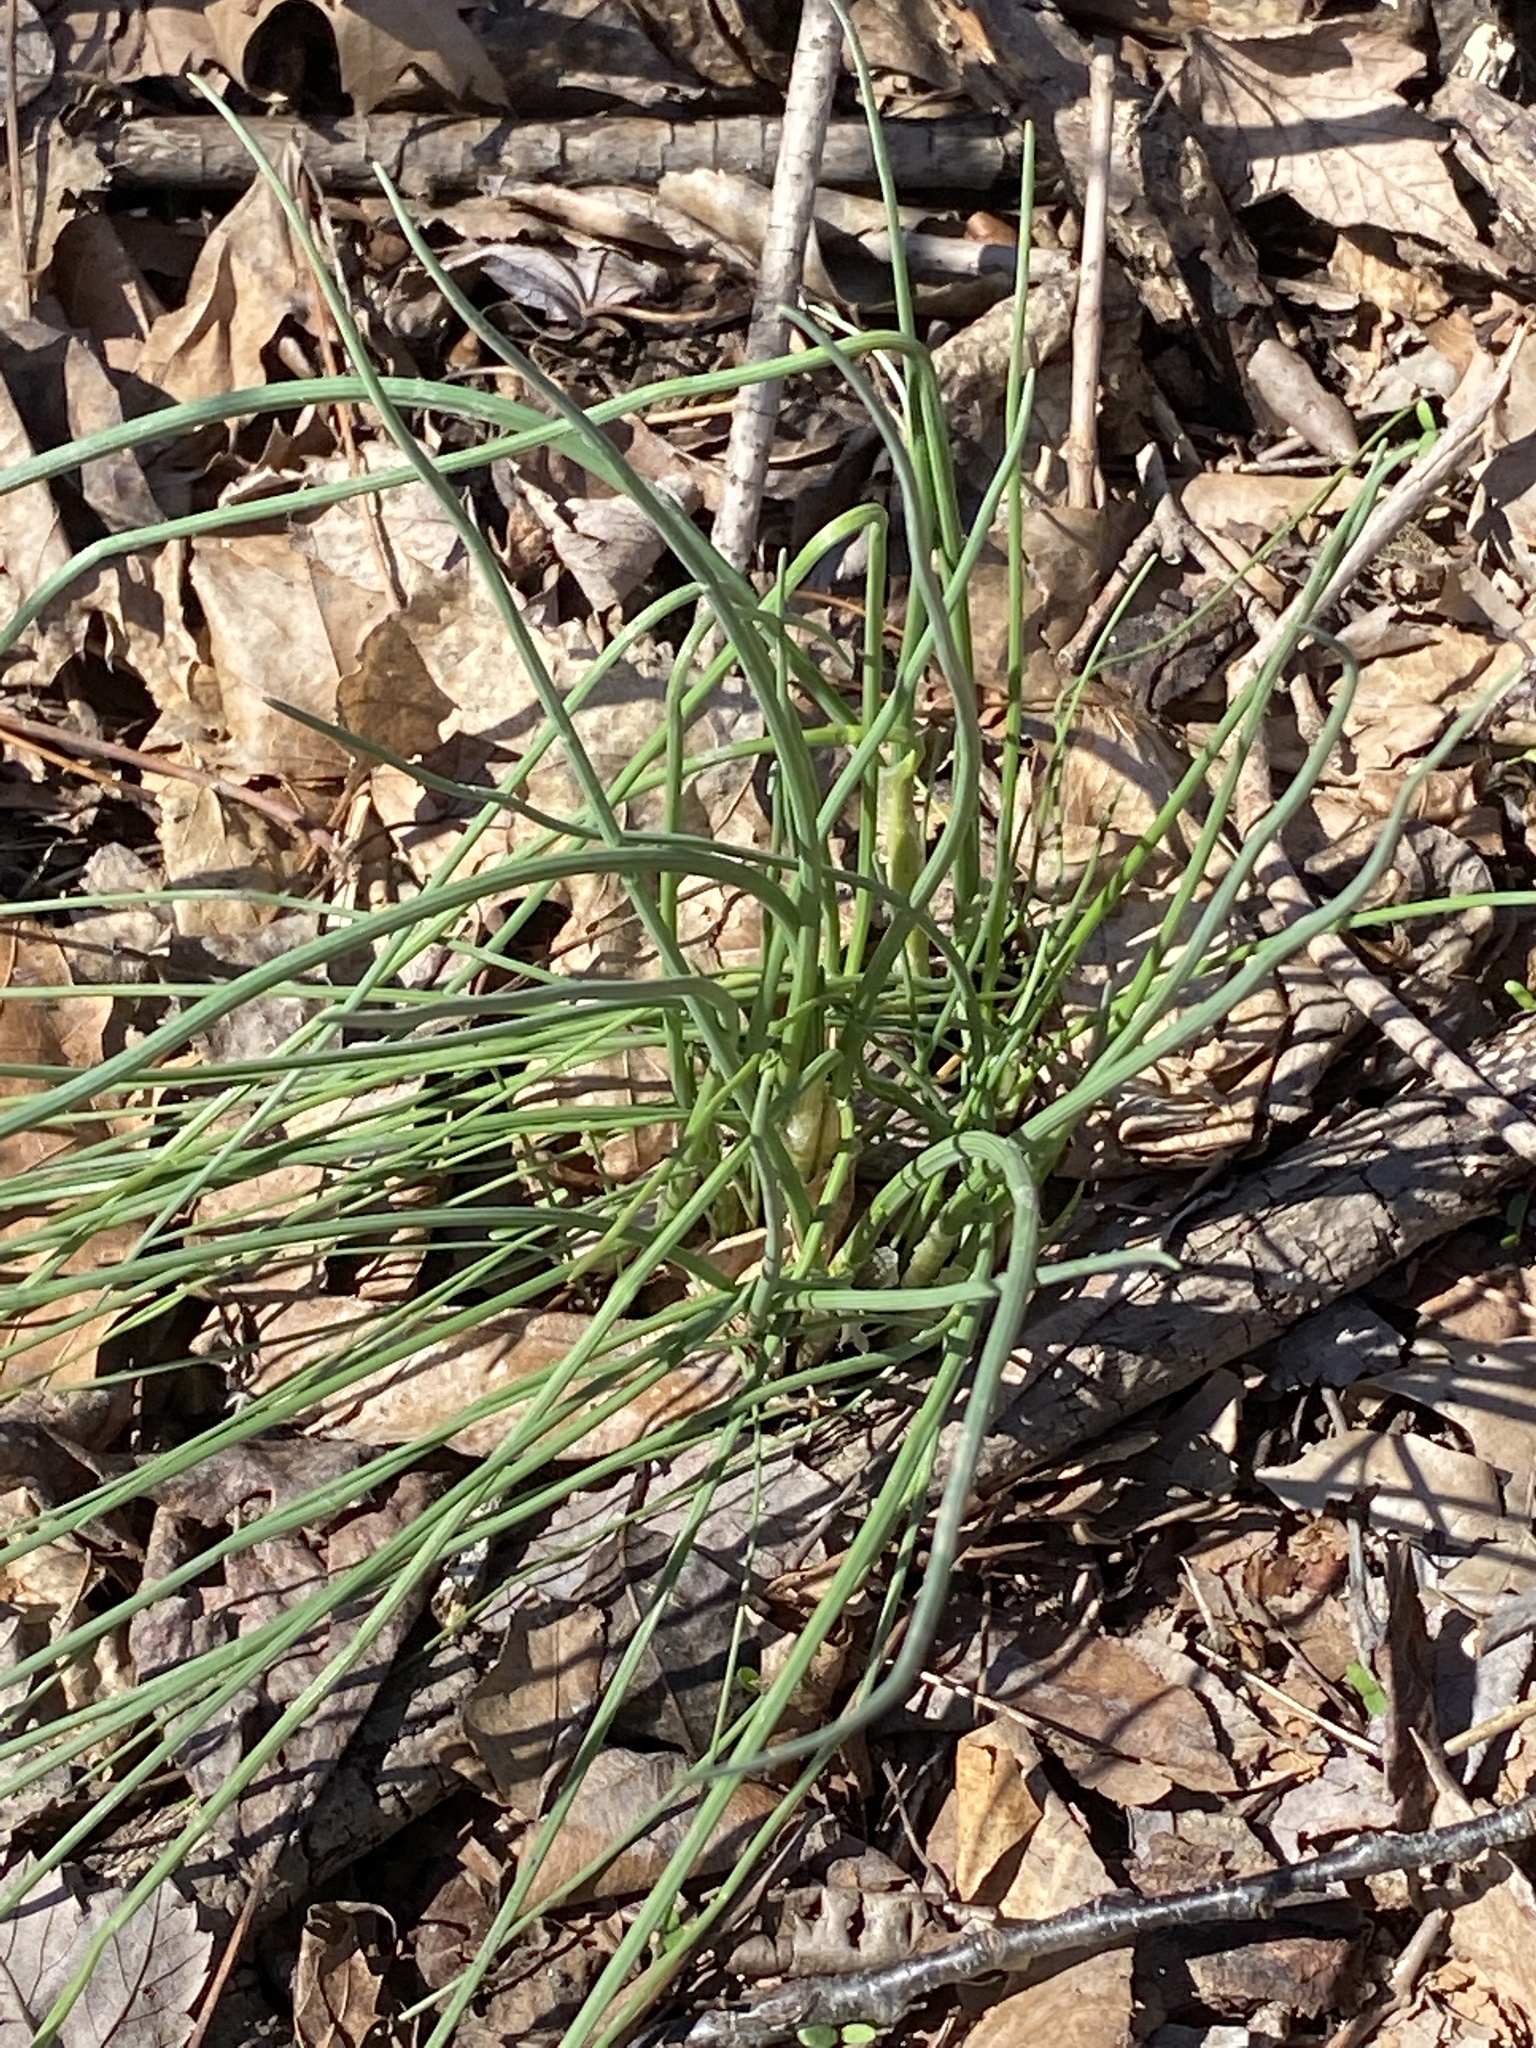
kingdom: Plantae
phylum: Tracheophyta
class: Liliopsida
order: Asparagales
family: Amaryllidaceae
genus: Allium
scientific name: Allium vineale
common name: Crow garlic
